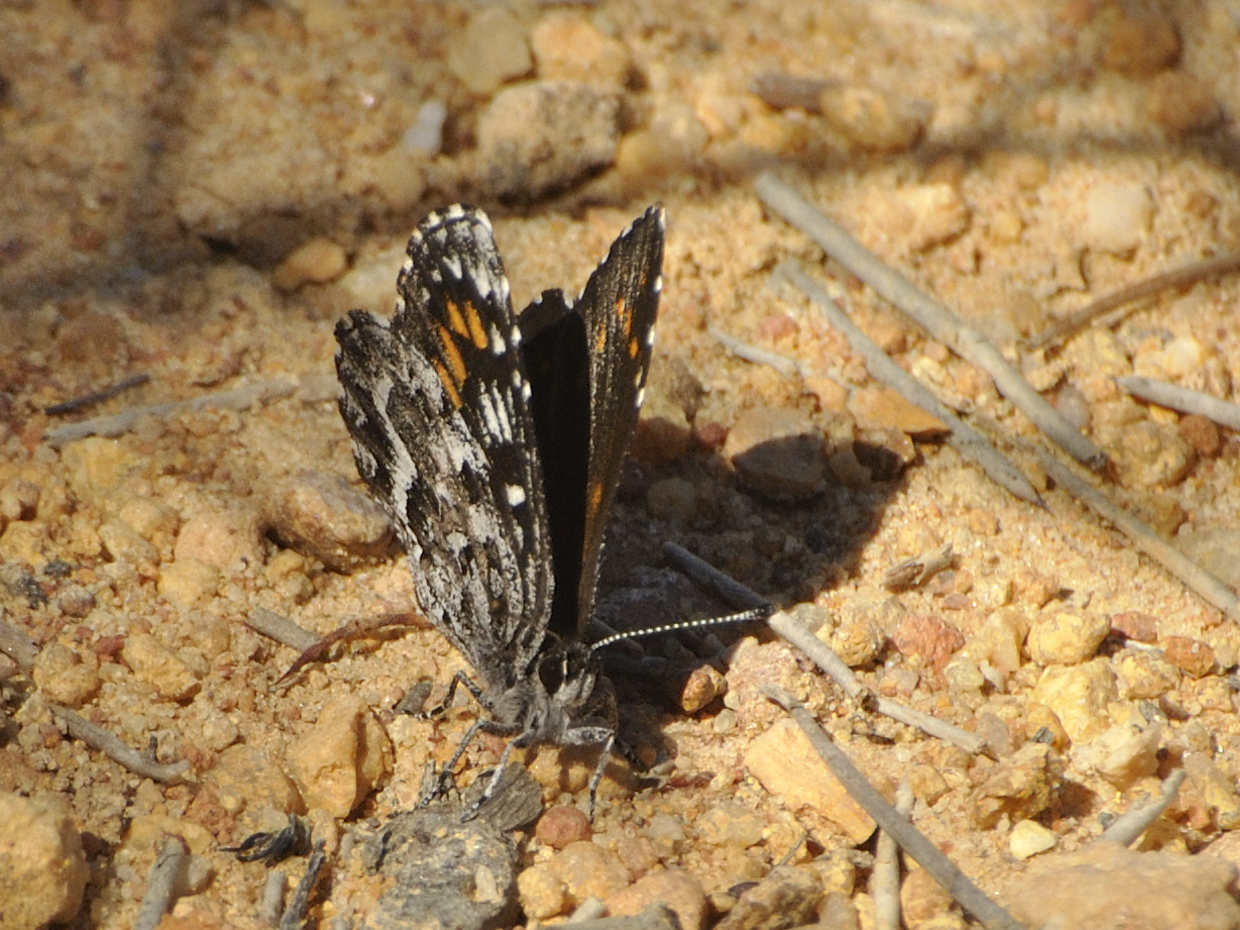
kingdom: Animalia
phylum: Arthropoda
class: Insecta
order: Lepidoptera
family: Lycaenidae
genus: Durbaniopsis
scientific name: Durbaniopsis saga
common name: Boland rocksitter
